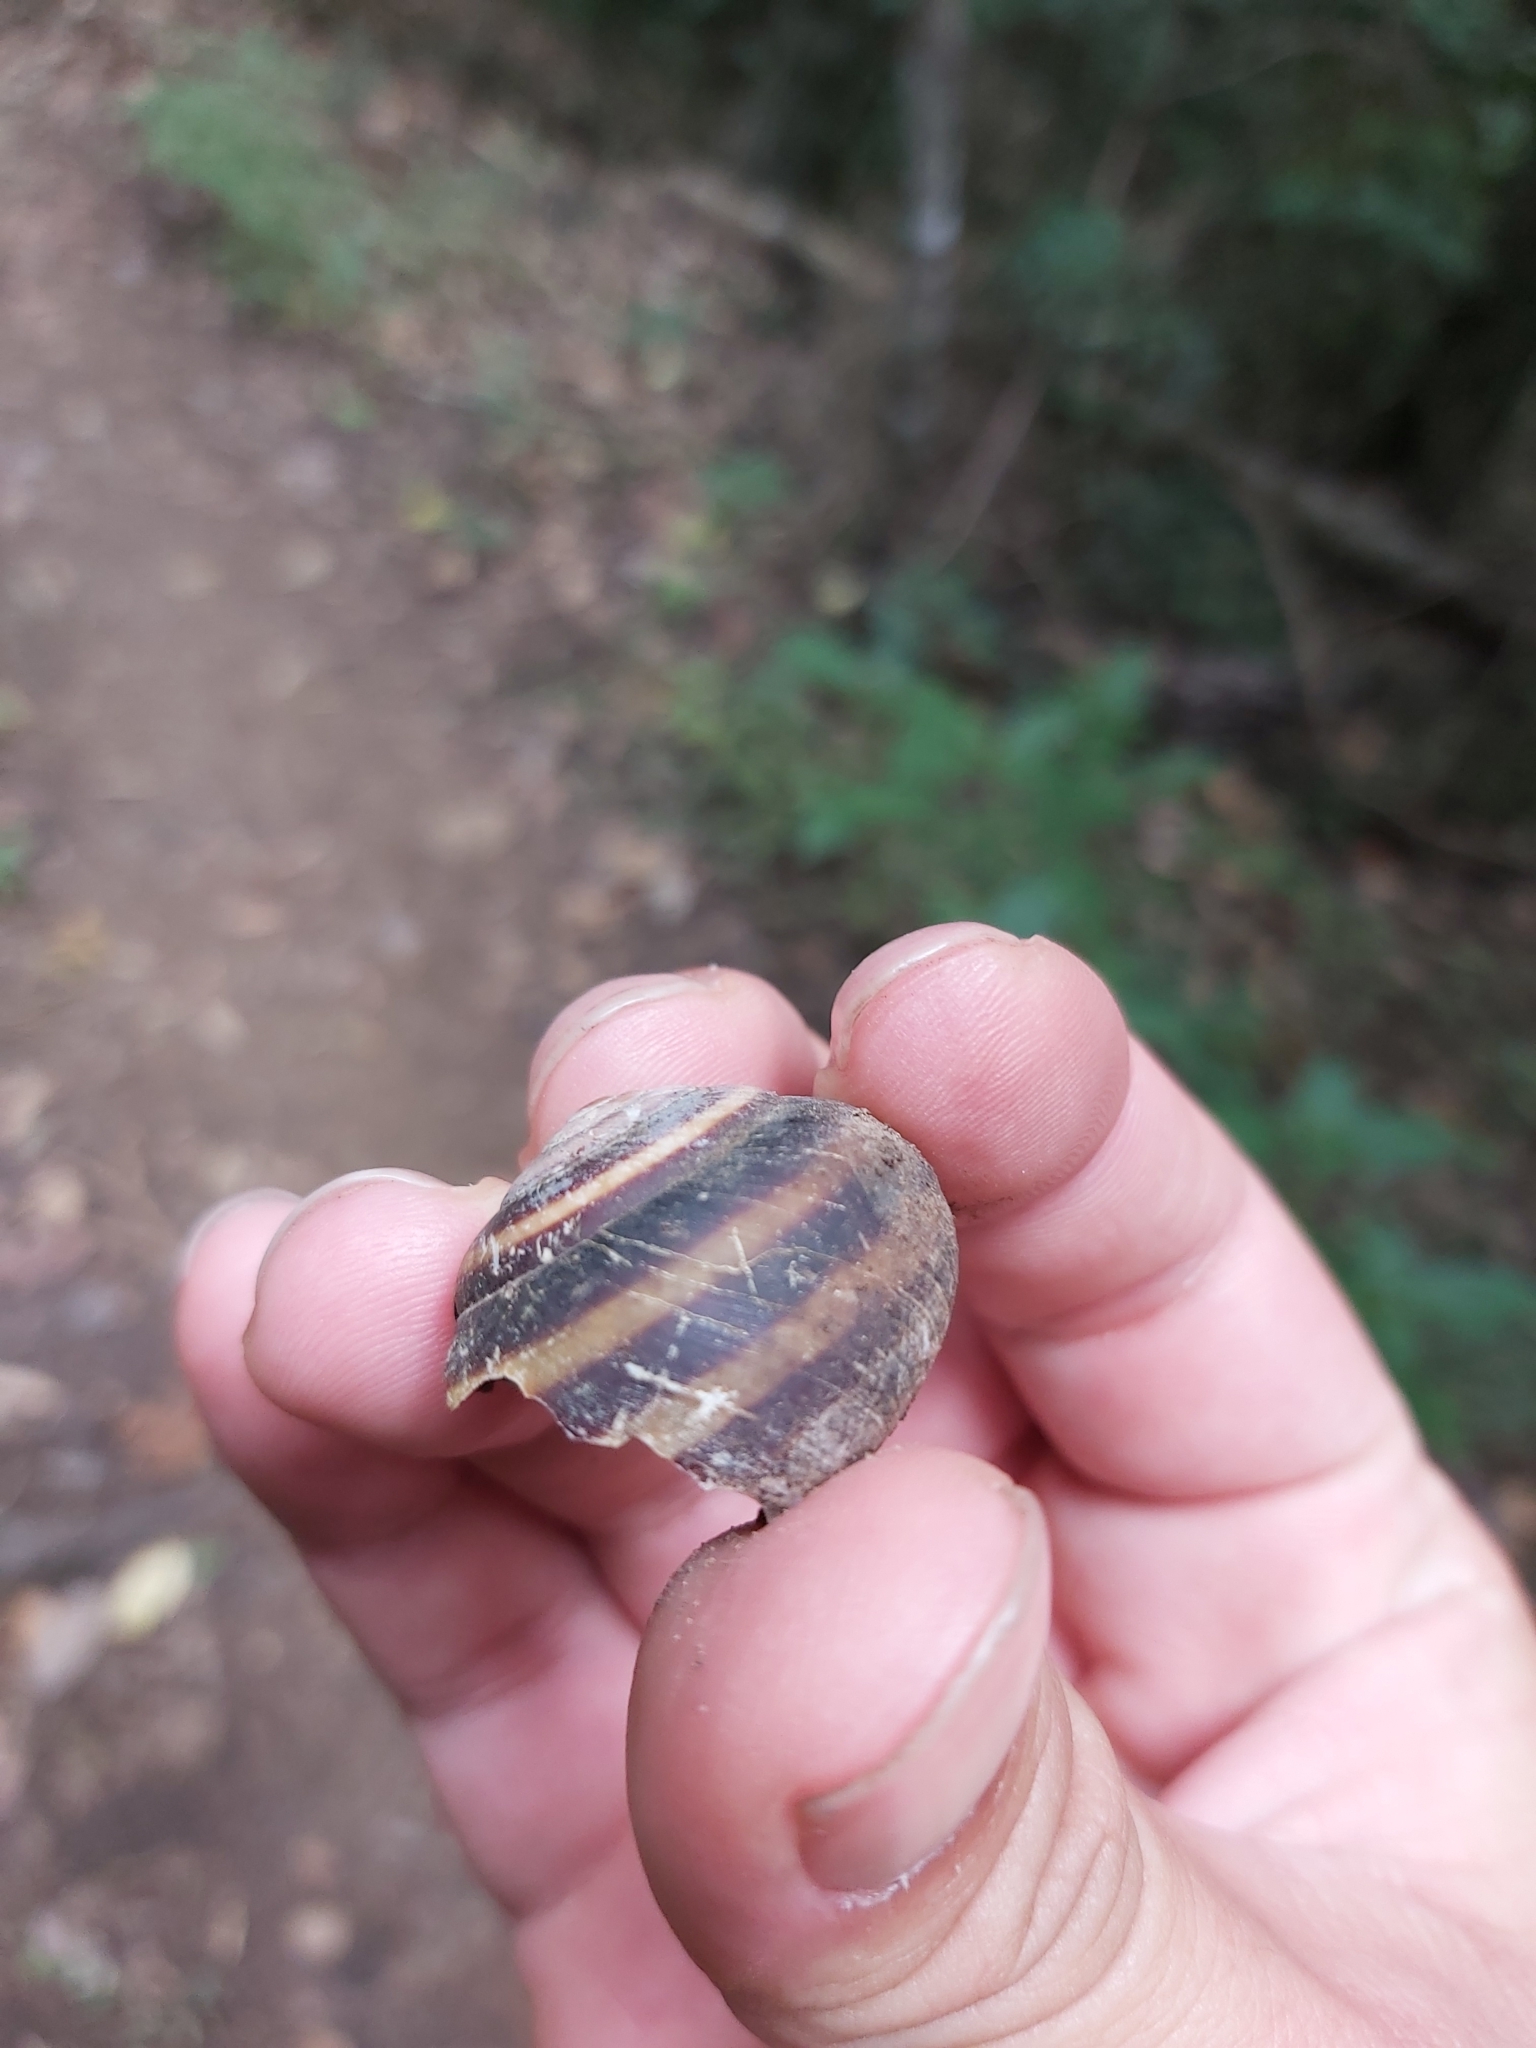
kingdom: Animalia
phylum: Mollusca
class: Gastropoda
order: Stylommatophora
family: Camaenidae
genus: Marilynessa
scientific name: Marilynessa yulei
